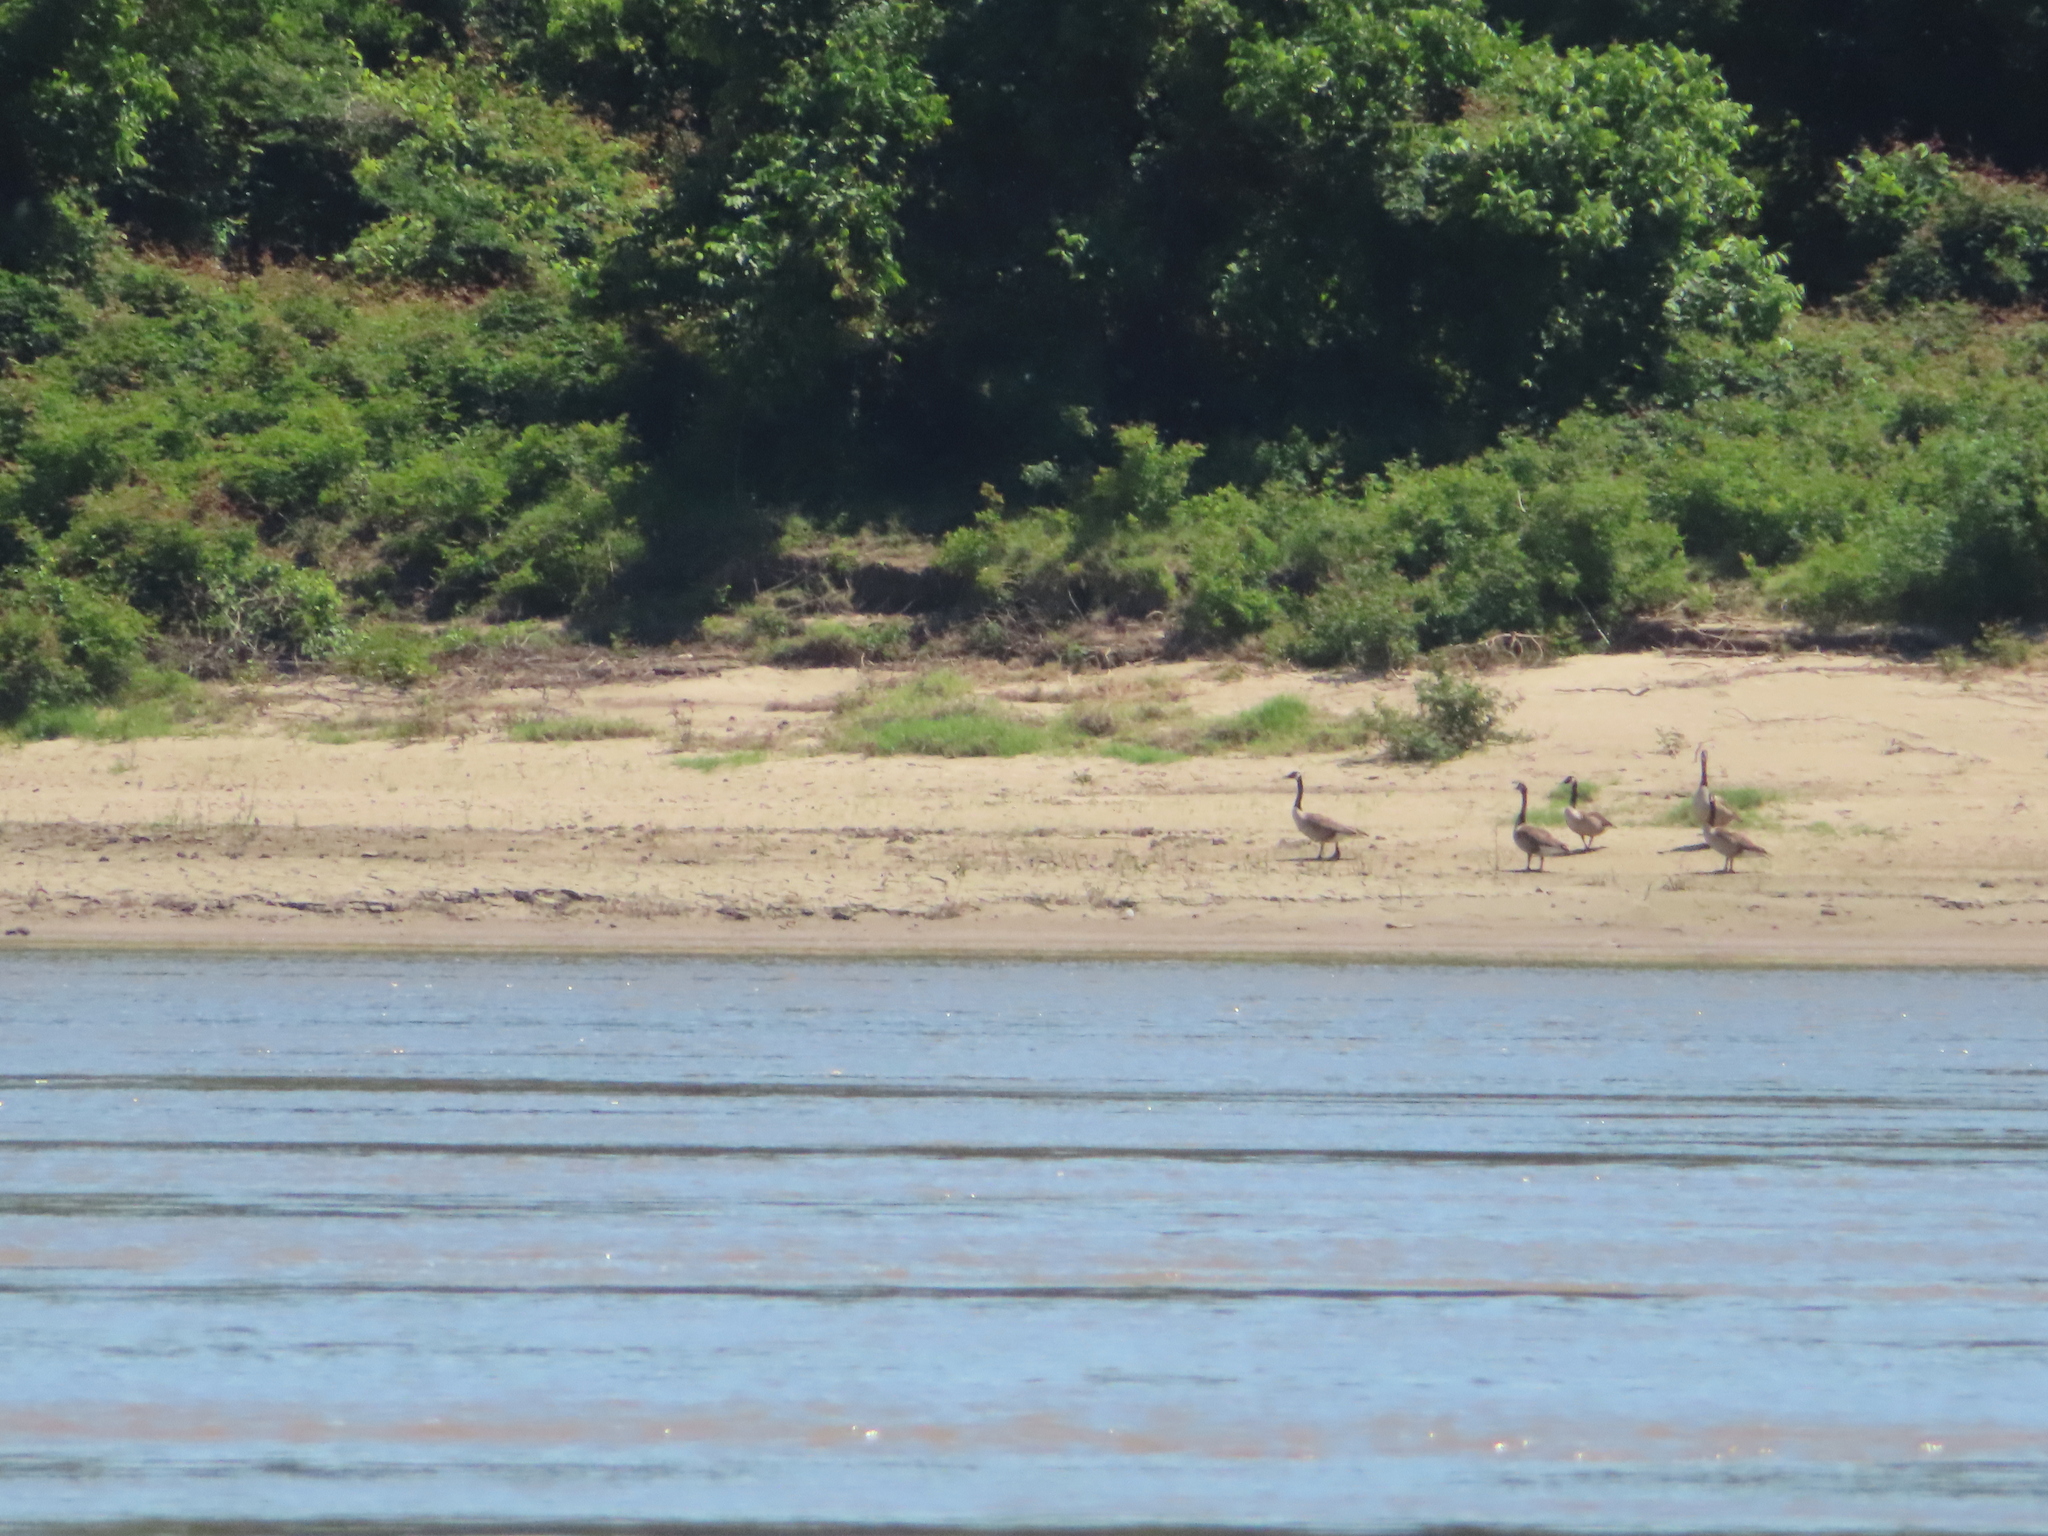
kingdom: Animalia
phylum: Chordata
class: Aves
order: Anseriformes
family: Anatidae
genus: Branta
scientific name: Branta canadensis
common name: Canada goose
